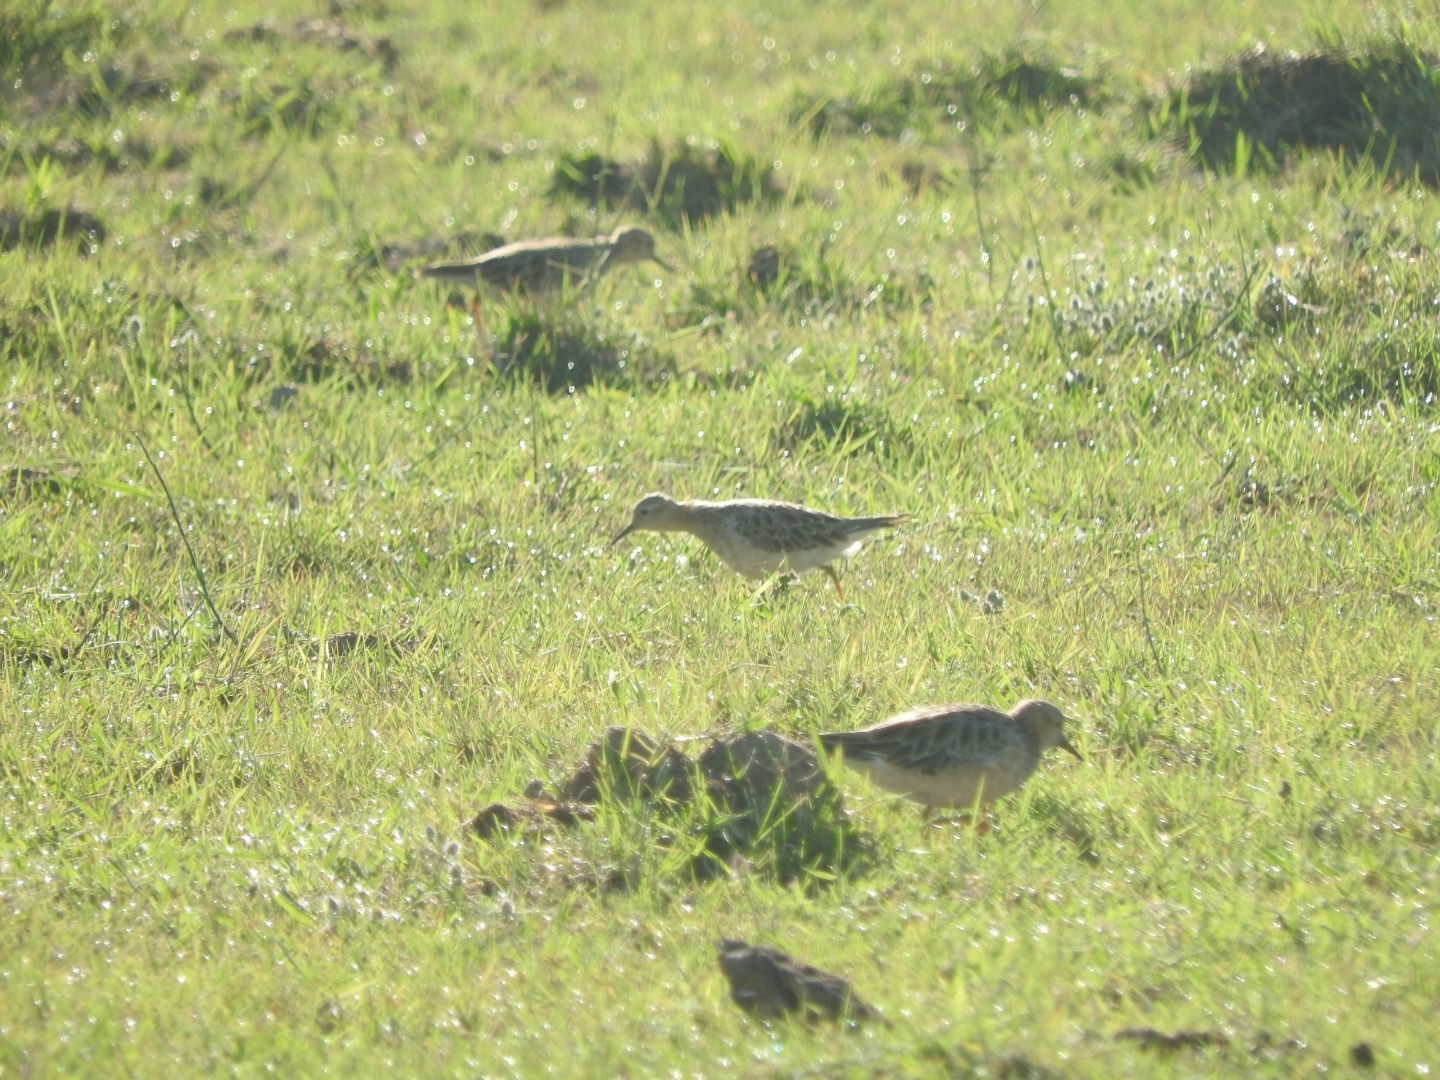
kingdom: Animalia
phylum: Chordata
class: Aves
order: Charadriiformes
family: Scolopacidae
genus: Calidris
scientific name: Calidris subruficollis
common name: Buff-breasted sandpiper
